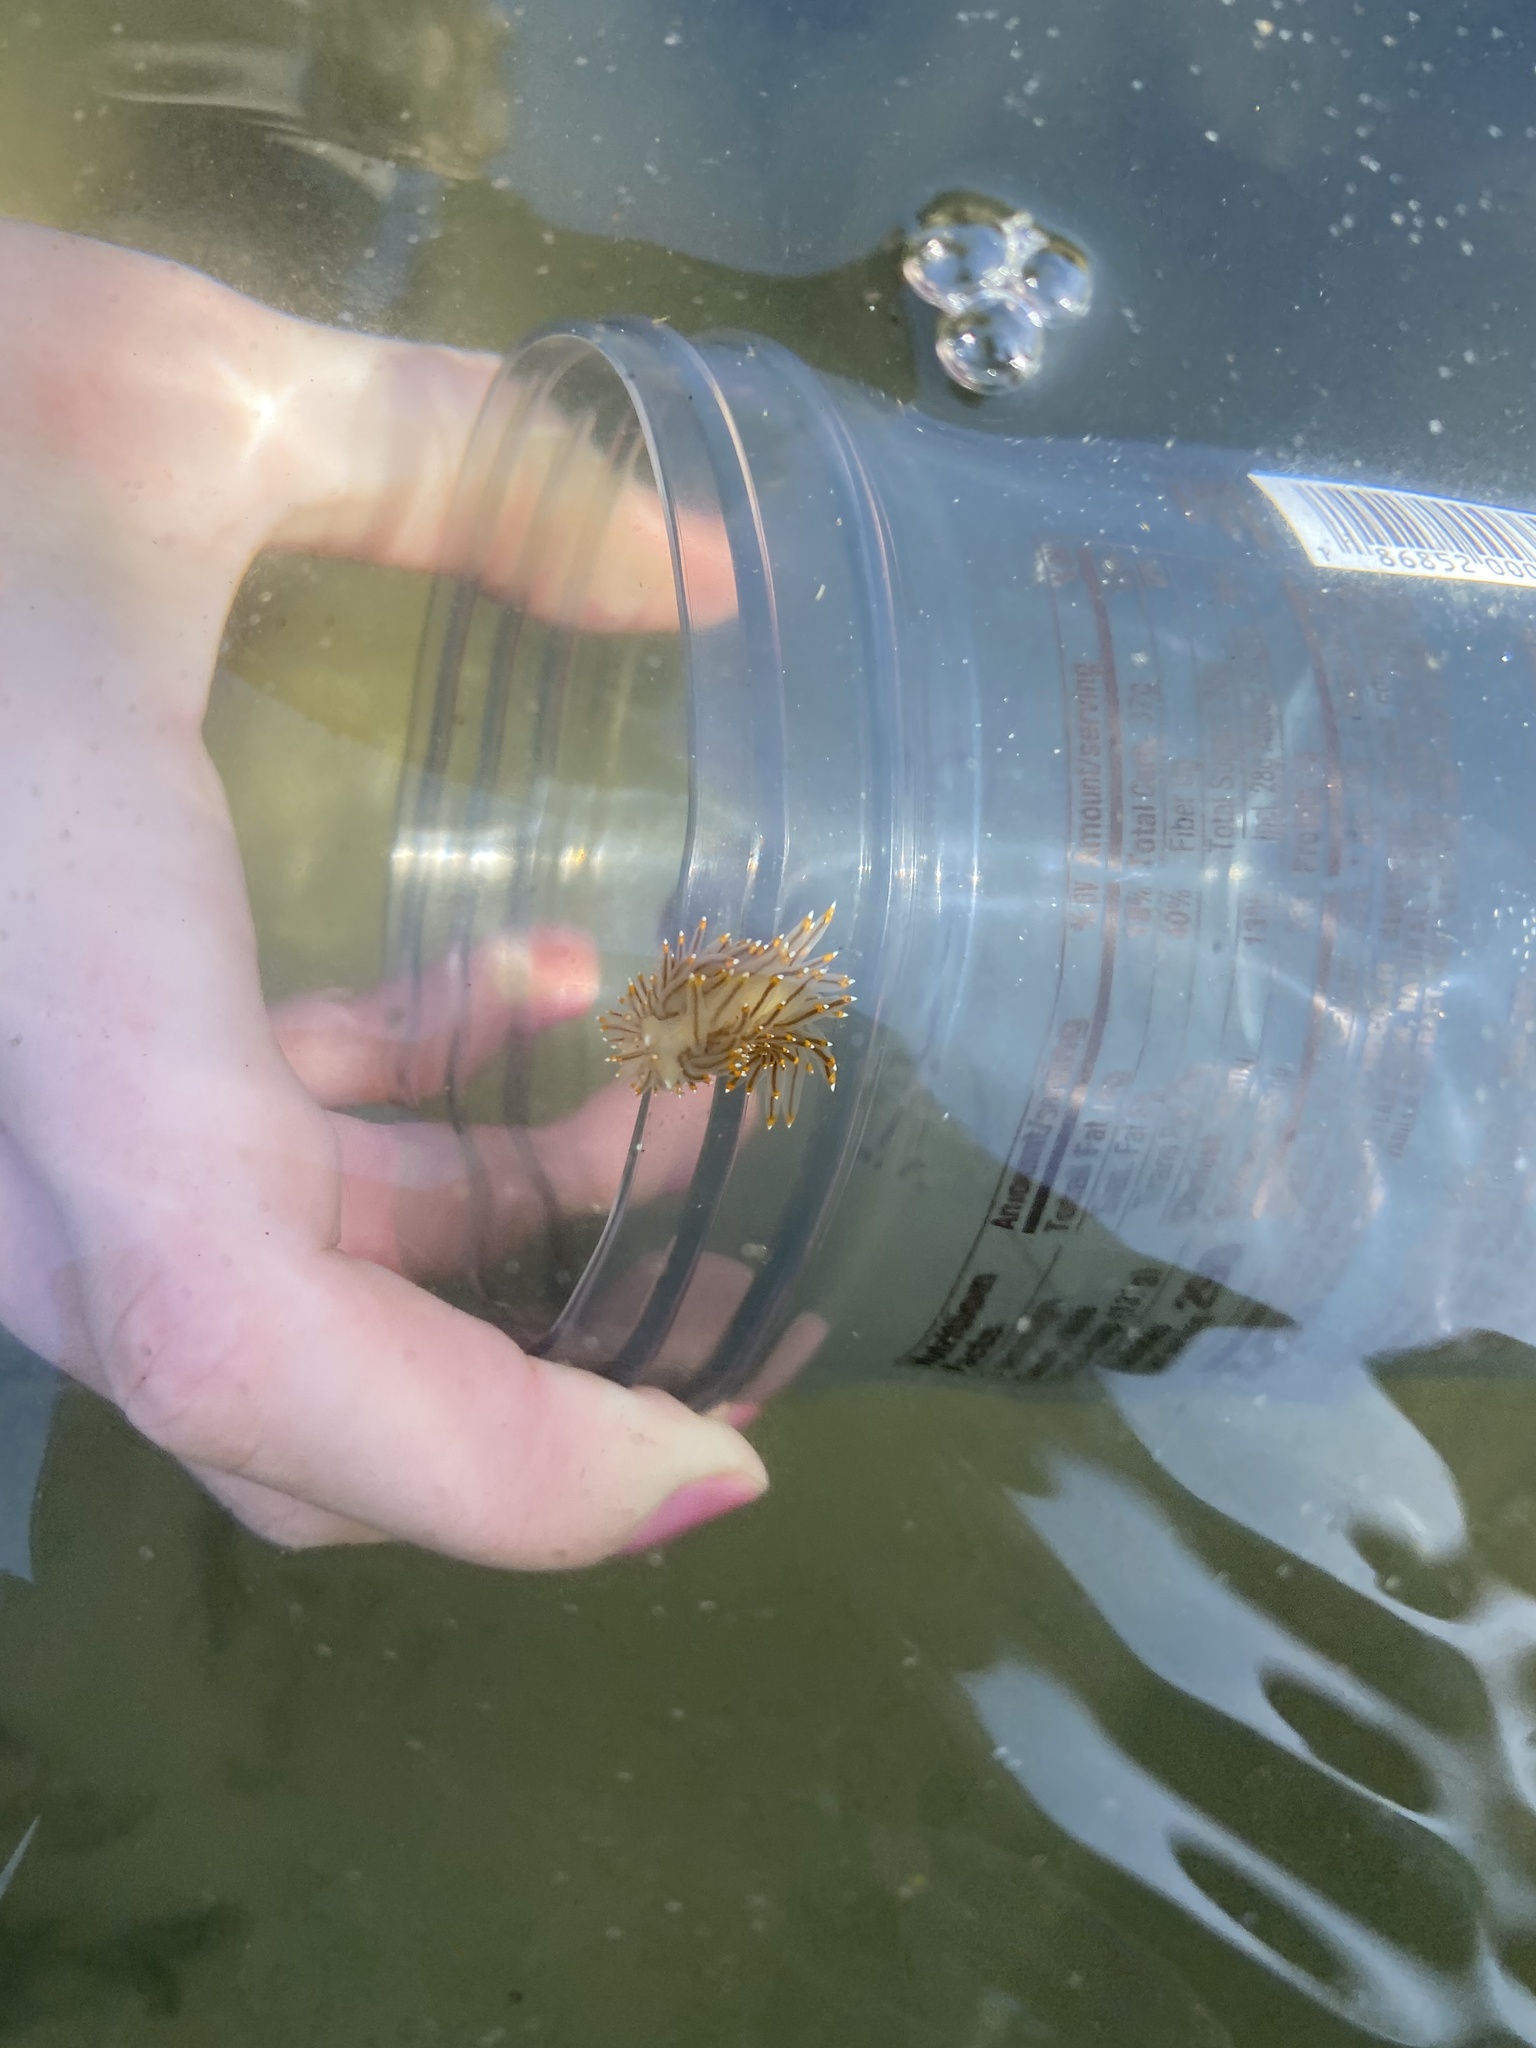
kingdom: Animalia
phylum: Mollusca
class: Gastropoda
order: Nudibranchia
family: Janolidae
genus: Antiopella
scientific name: Antiopella fusca
